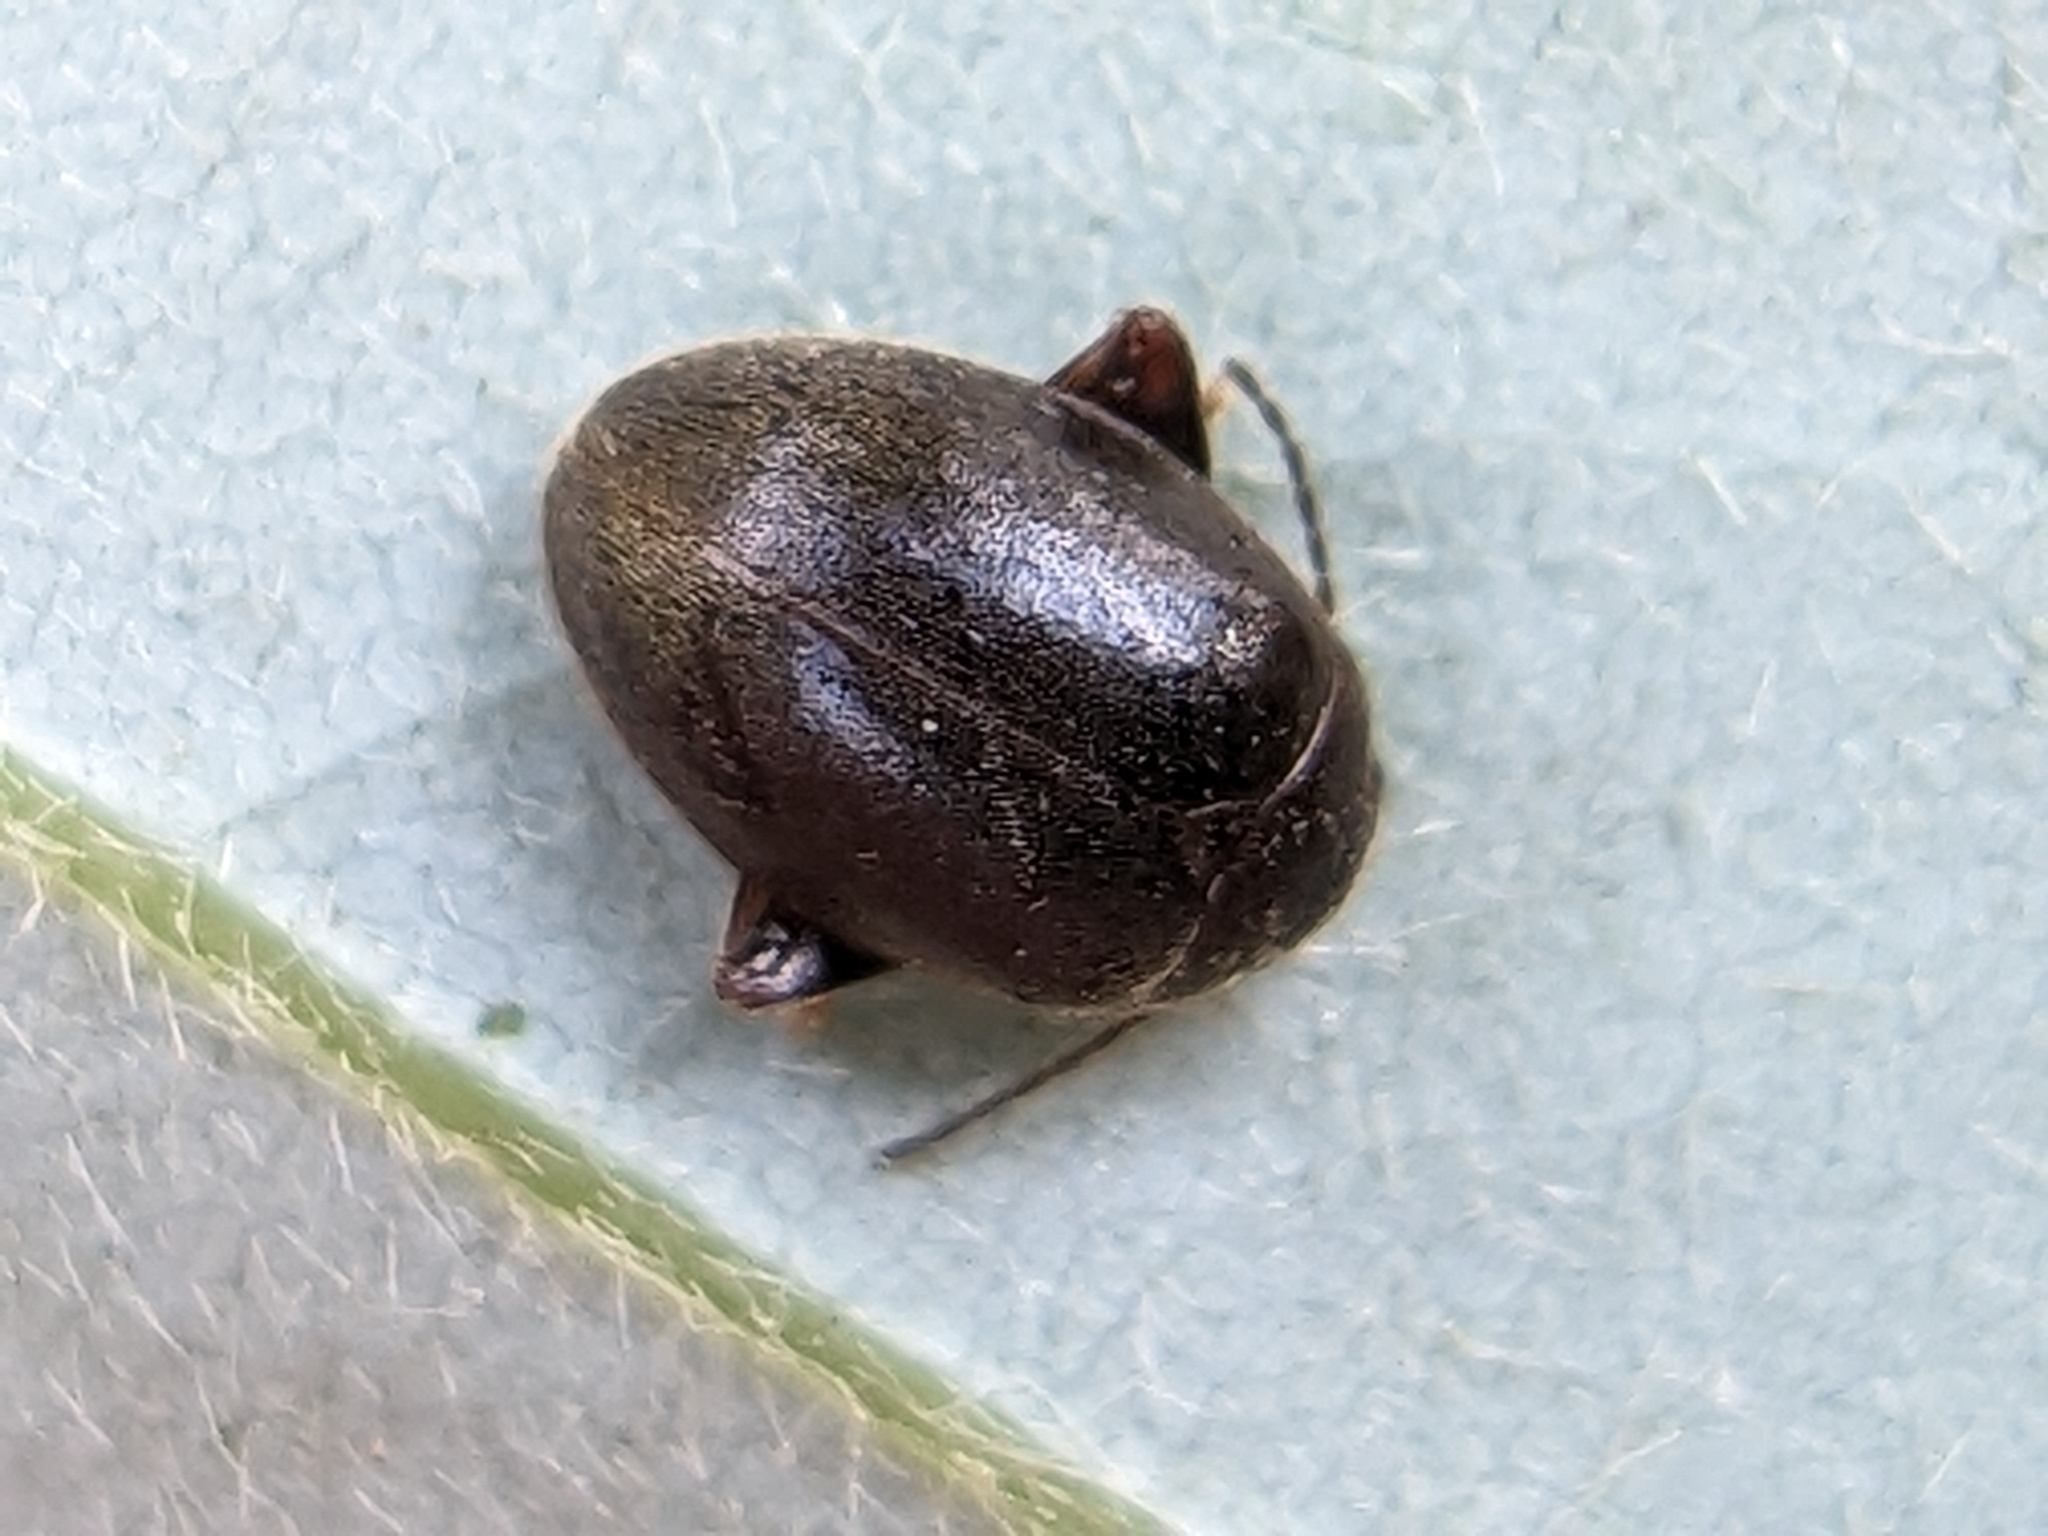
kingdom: Animalia
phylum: Arthropoda
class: Insecta
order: Coleoptera
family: Scirtidae
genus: Scirtes
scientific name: Scirtes tibialis
